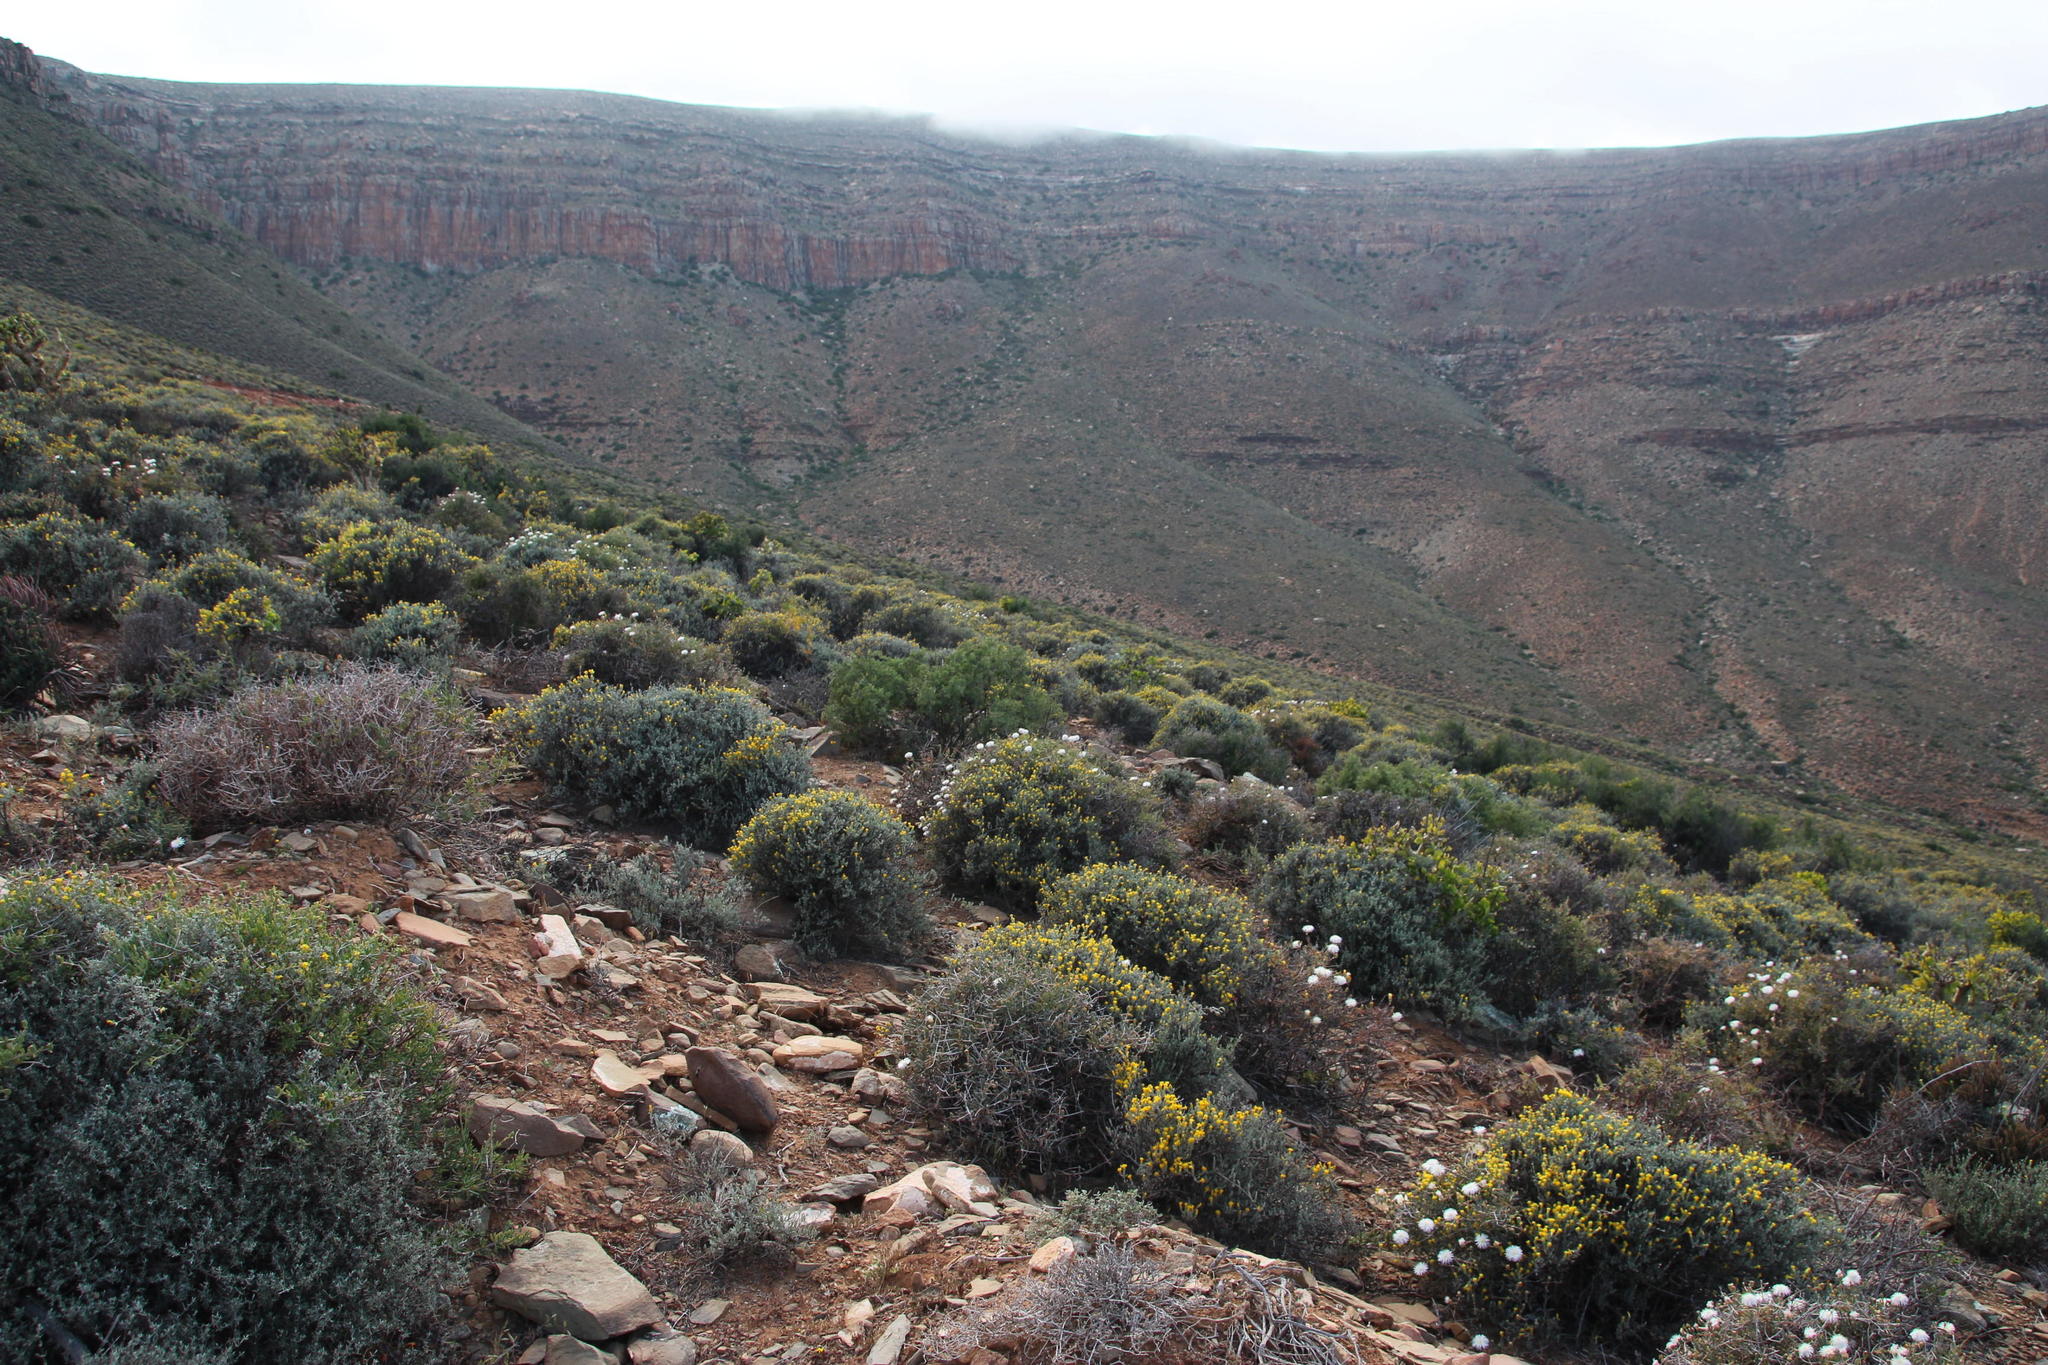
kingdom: Plantae
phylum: Tracheophyta
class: Magnoliopsida
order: Asterales
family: Asteraceae
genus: Pteronia
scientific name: Pteronia incana
